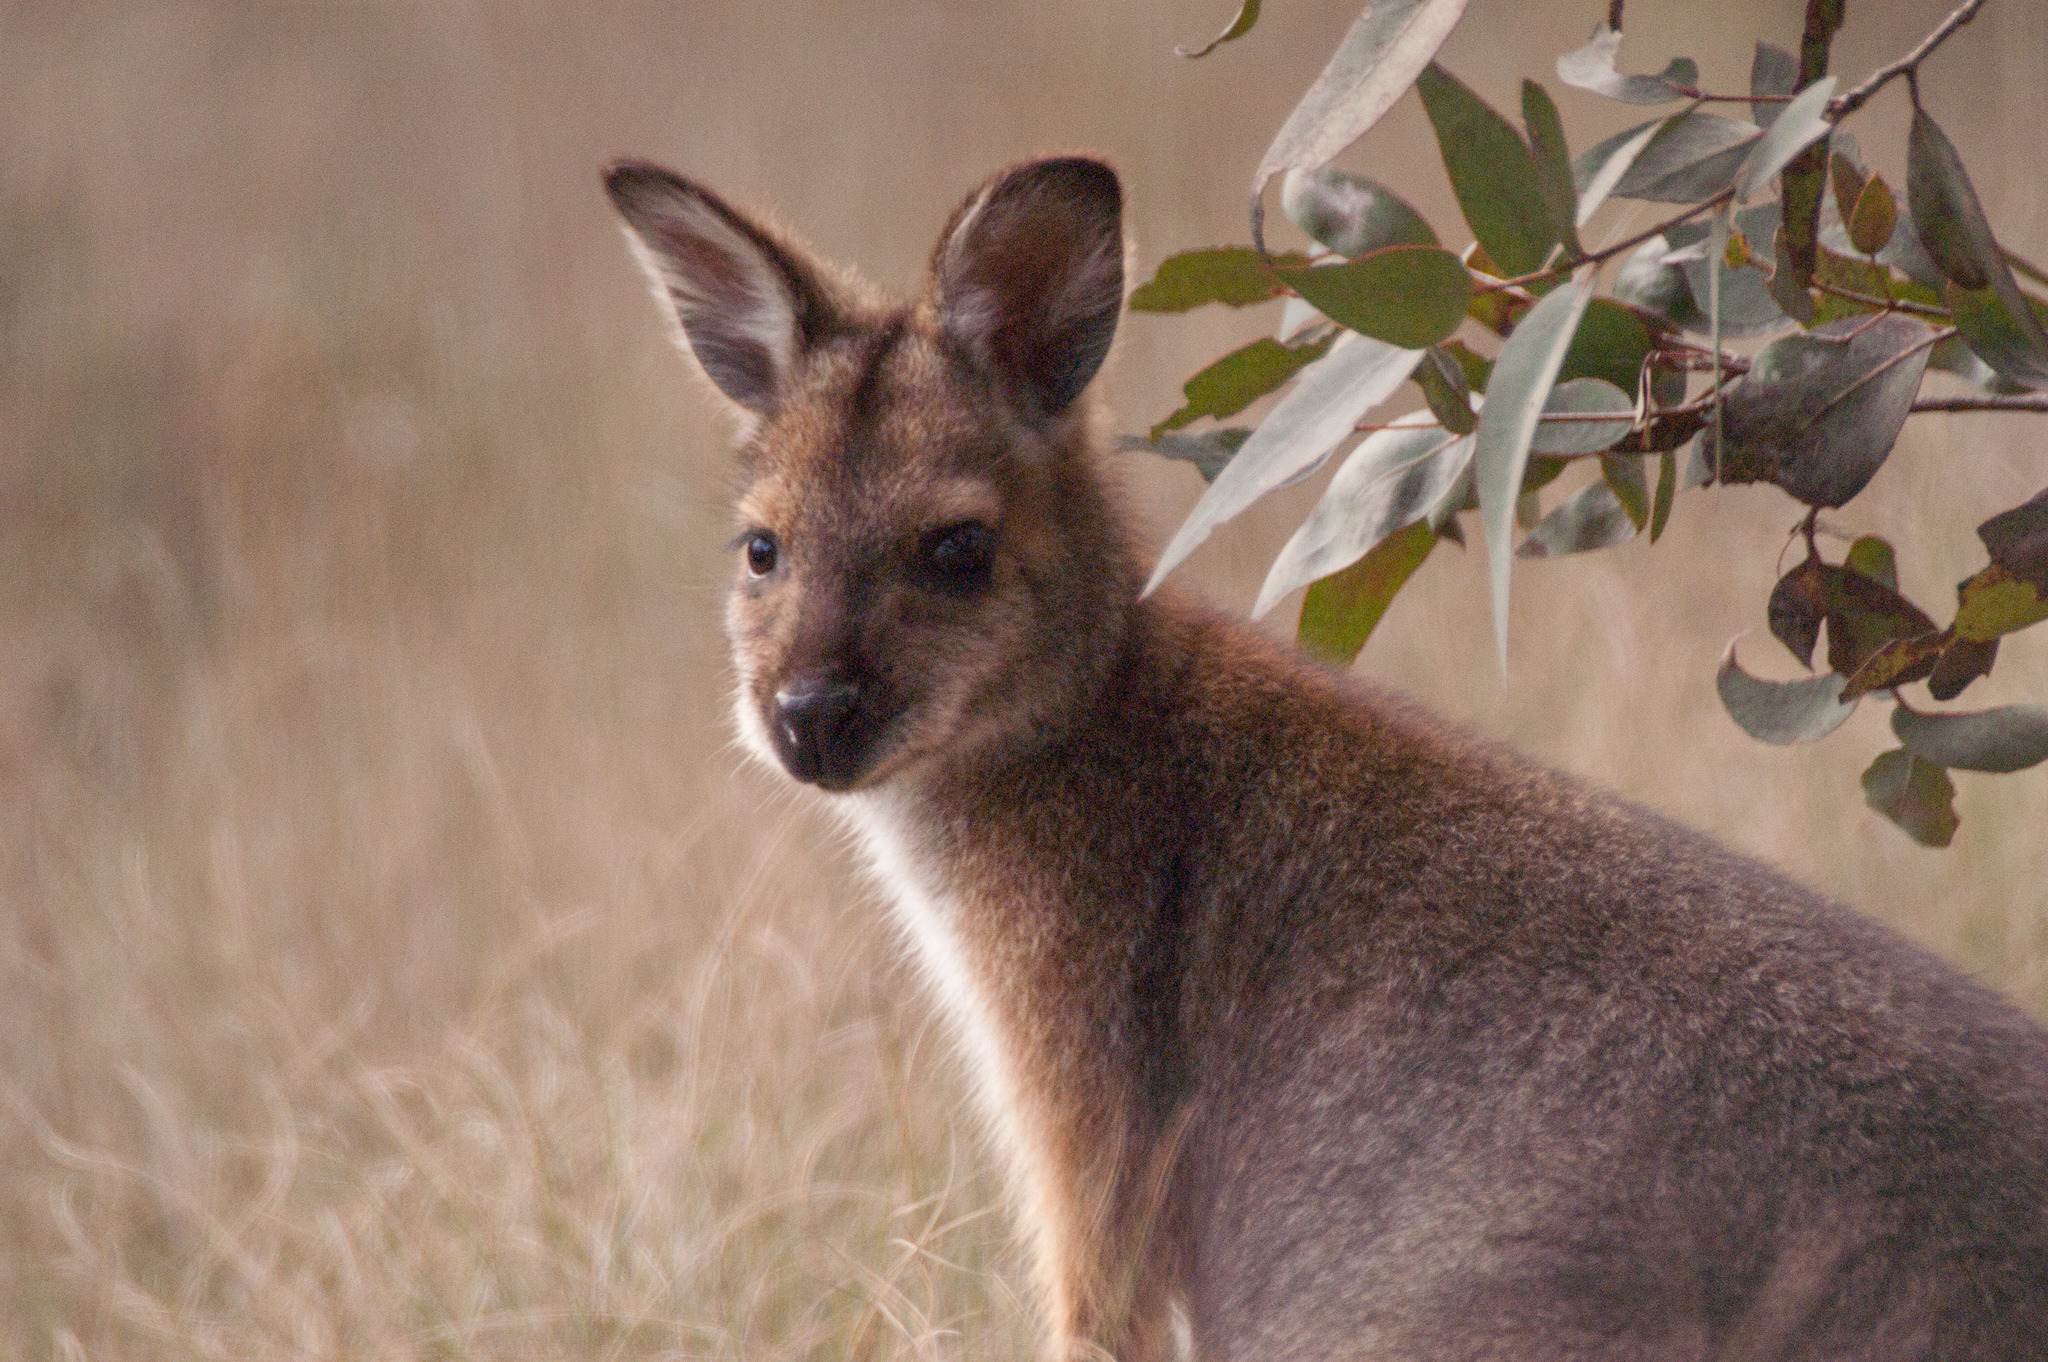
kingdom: Animalia
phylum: Chordata
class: Mammalia
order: Diprotodontia
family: Macropodidae
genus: Notamacropus
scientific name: Notamacropus rufogriseus
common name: Red-necked wallaby
